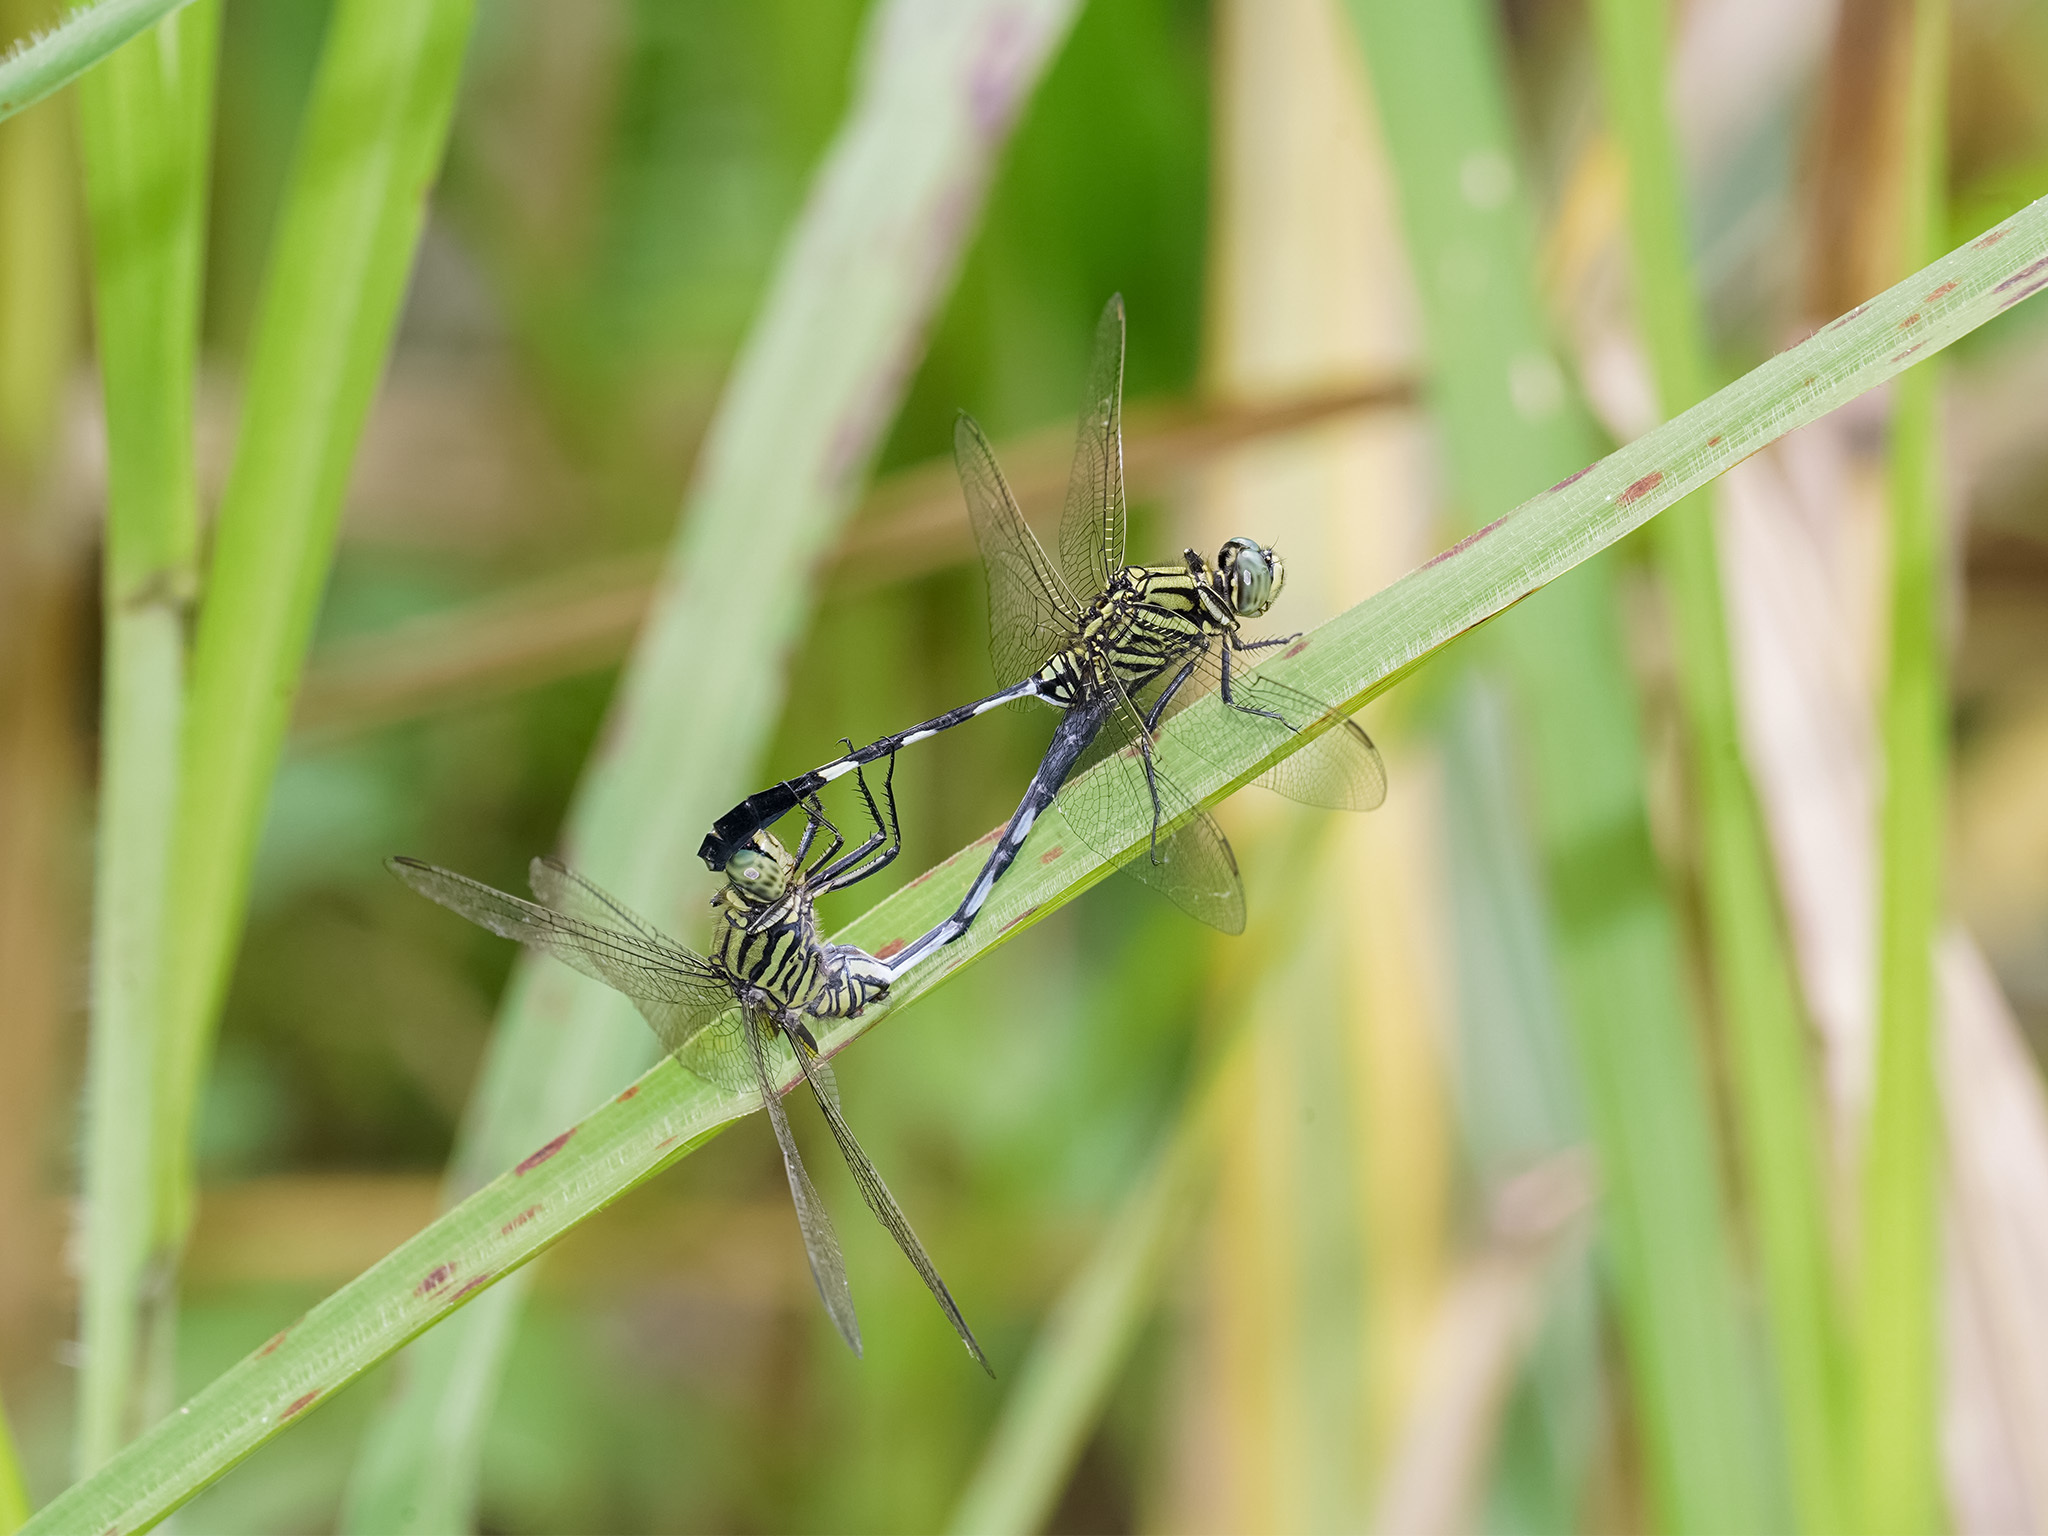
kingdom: Animalia
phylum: Arthropoda
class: Insecta
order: Odonata
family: Libellulidae
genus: Orthetrum
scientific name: Orthetrum sabina
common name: Slender skimmer
